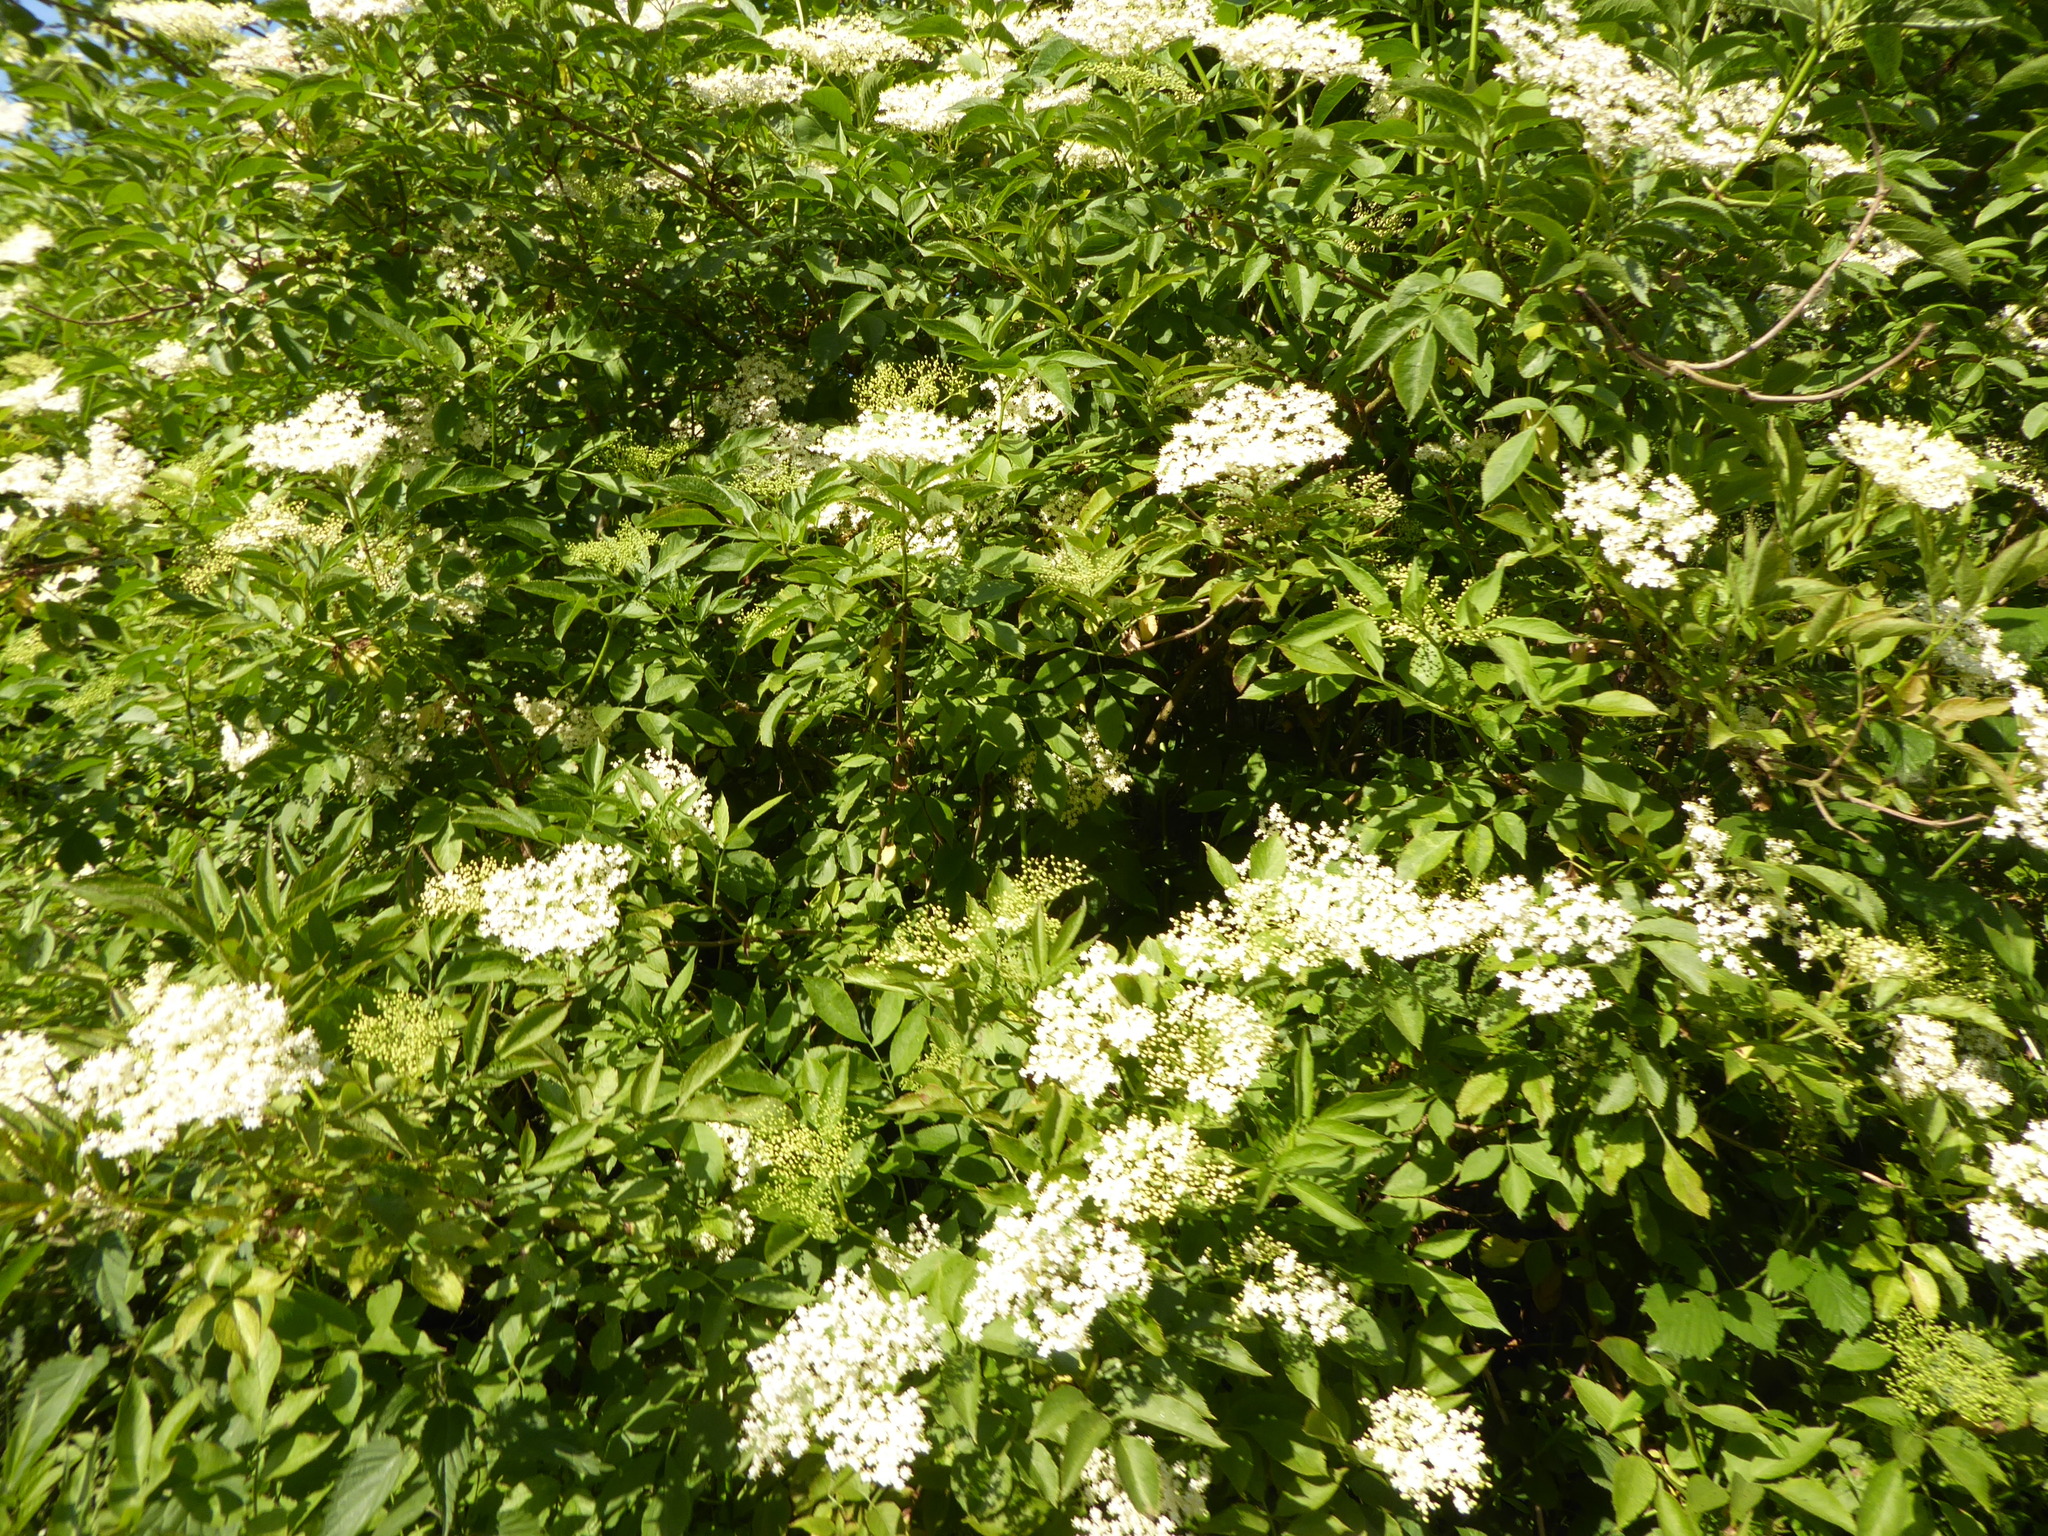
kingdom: Plantae
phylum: Tracheophyta
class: Magnoliopsida
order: Dipsacales
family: Viburnaceae
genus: Sambucus
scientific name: Sambucus nigra
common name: Elder
